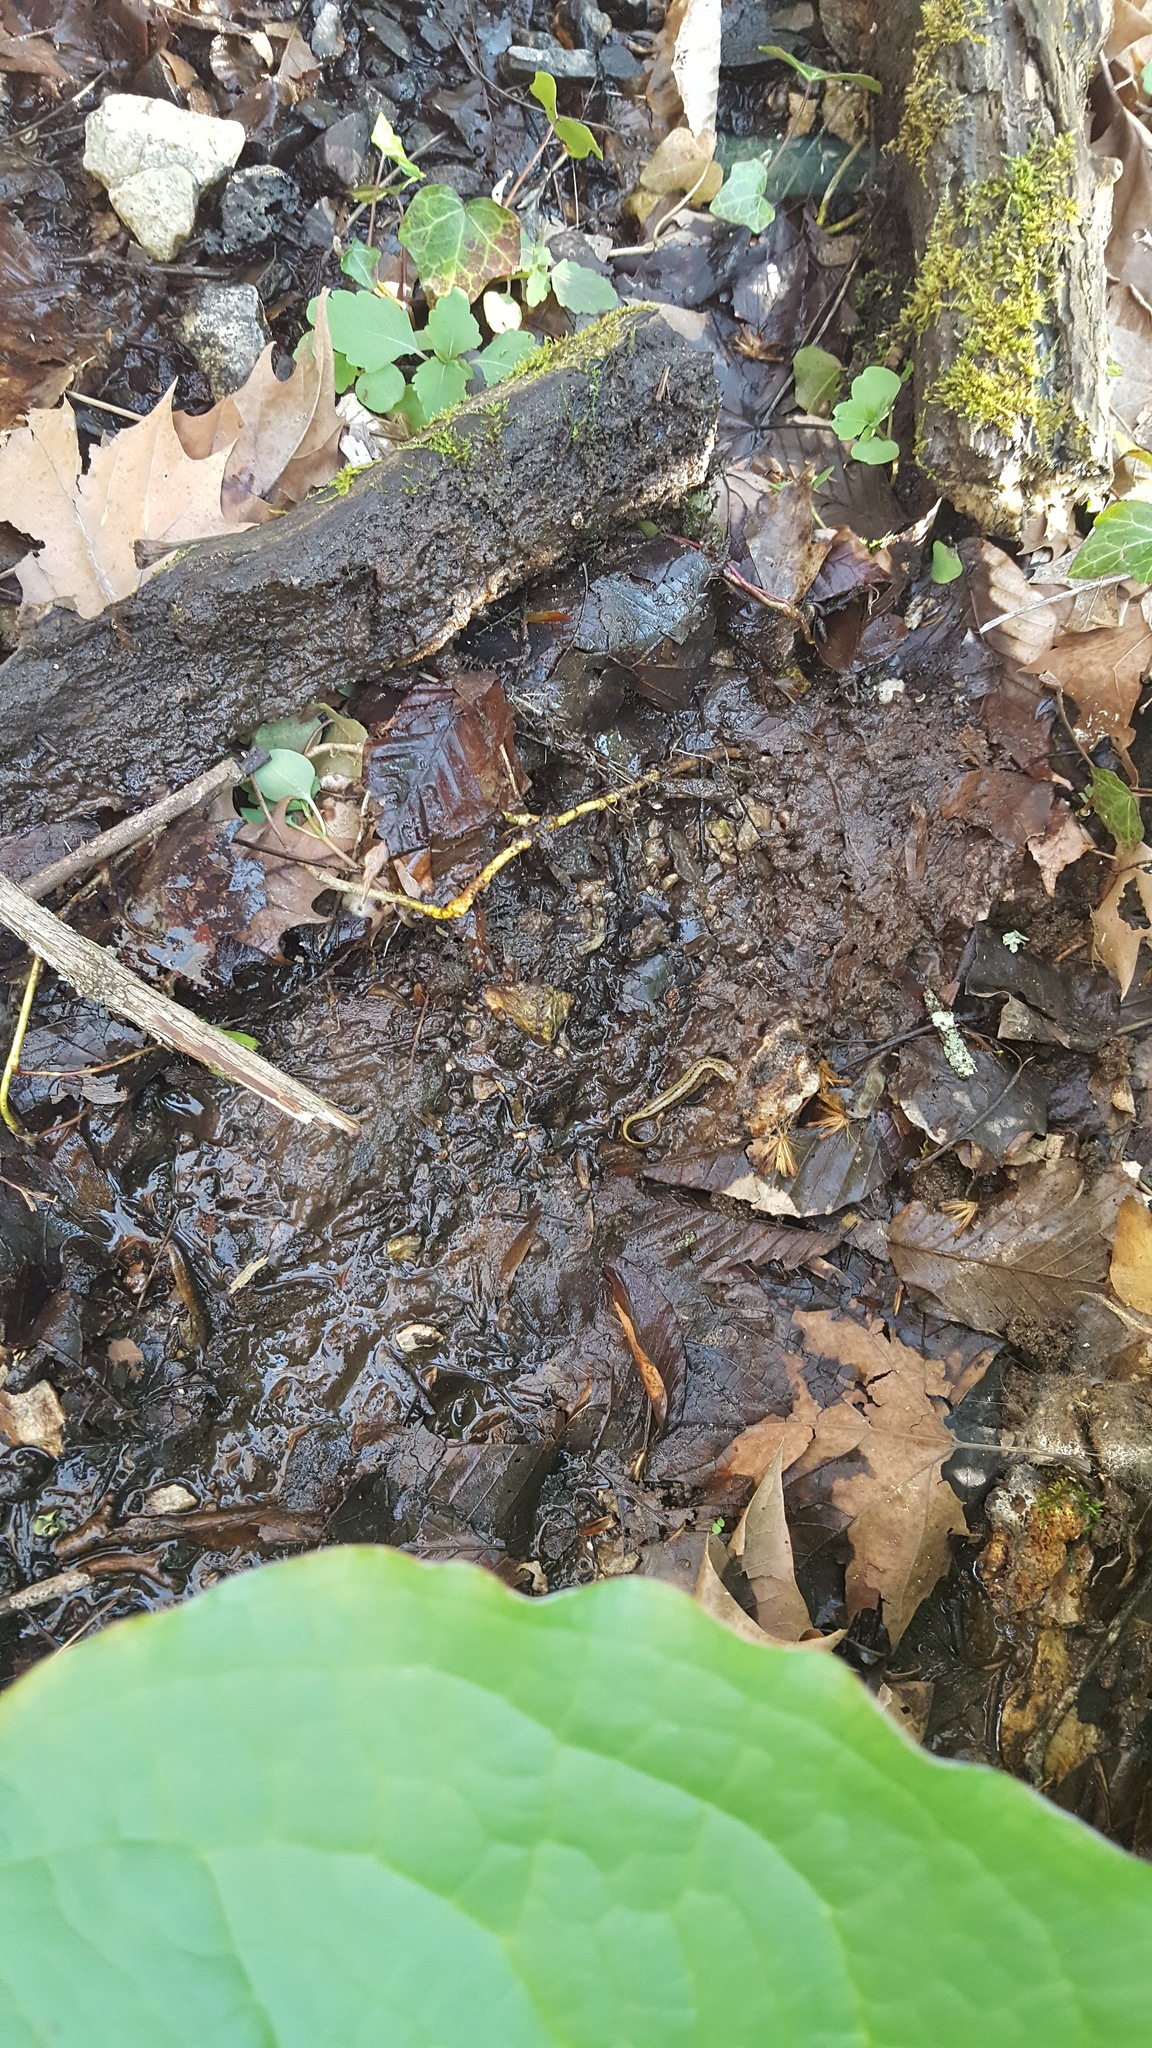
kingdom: Animalia
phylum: Chordata
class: Amphibia
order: Caudata
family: Plethodontidae
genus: Eurycea
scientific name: Eurycea cirrigera
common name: Southern two-lined salamander
